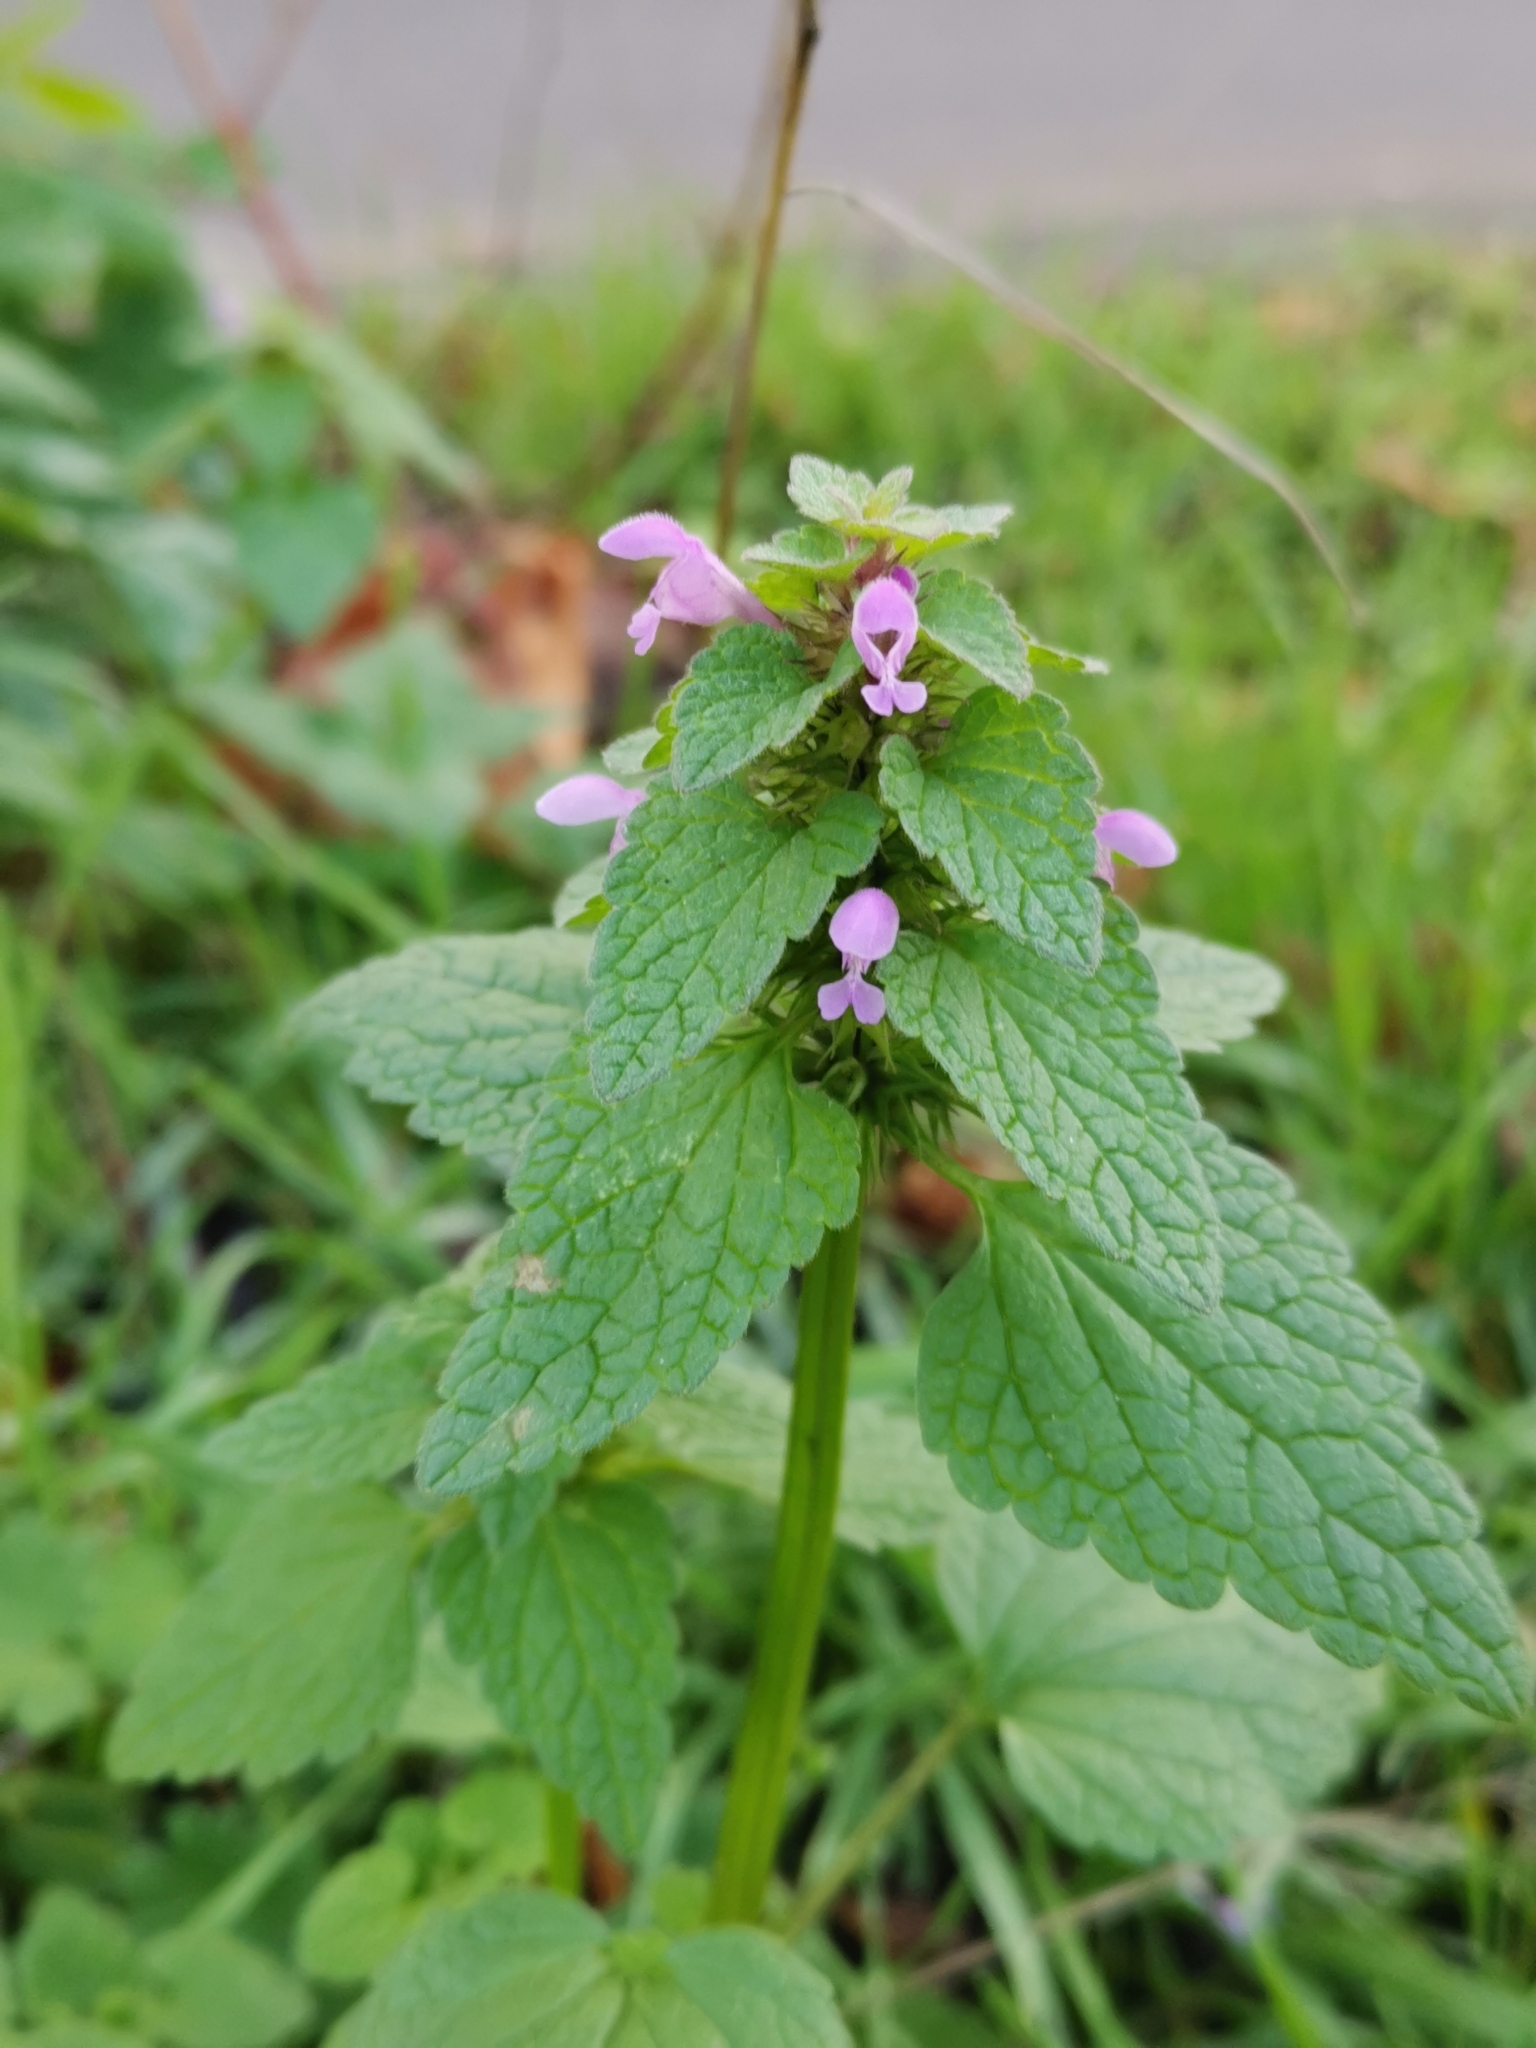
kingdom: Plantae
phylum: Tracheophyta
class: Magnoliopsida
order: Lamiales
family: Lamiaceae
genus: Lamium
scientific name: Lamium purpureum
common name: Red dead-nettle
